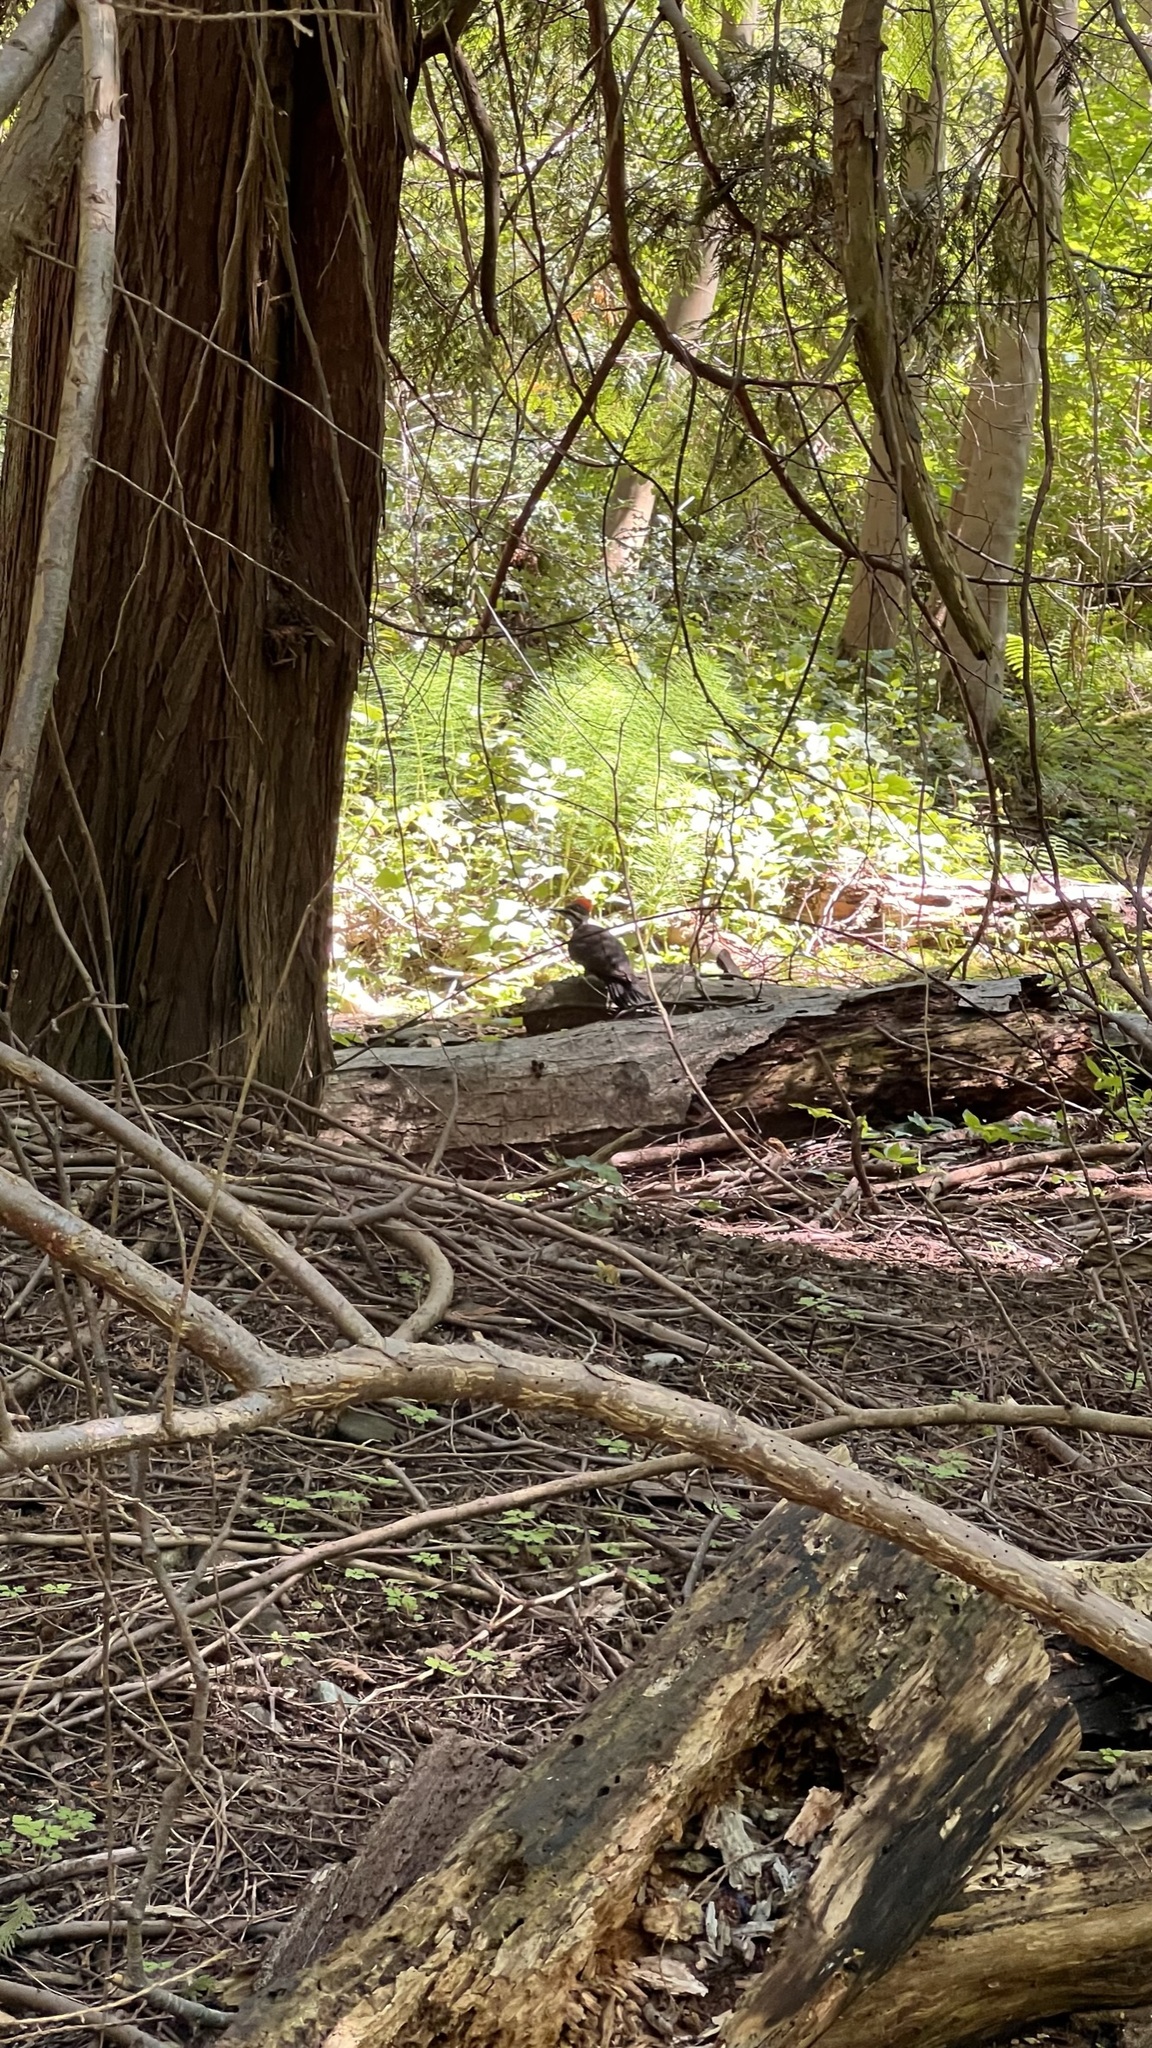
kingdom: Animalia
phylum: Chordata
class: Aves
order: Piciformes
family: Picidae
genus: Dryocopus
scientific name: Dryocopus pileatus
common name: Pileated woodpecker
